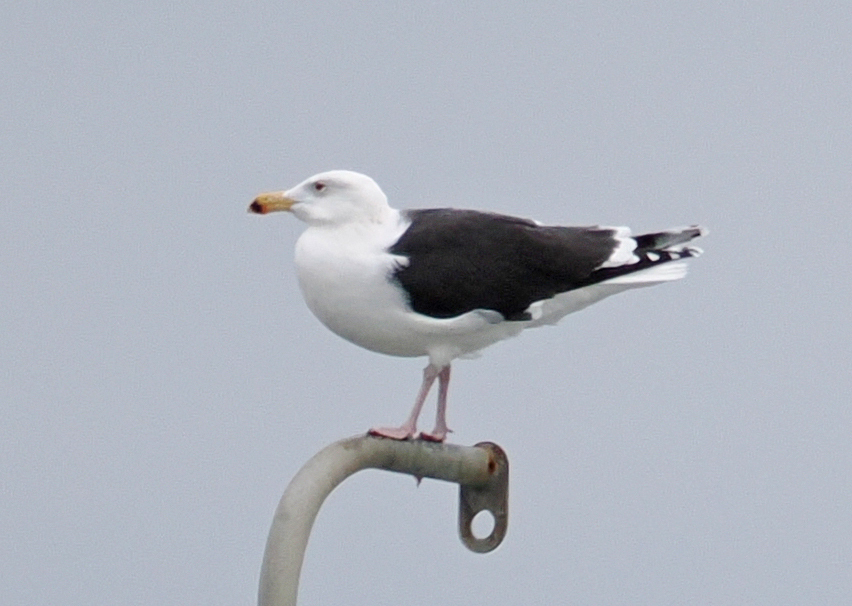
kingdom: Animalia
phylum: Chordata
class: Aves
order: Charadriiformes
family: Laridae
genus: Larus
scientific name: Larus marinus
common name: Great black-backed gull
